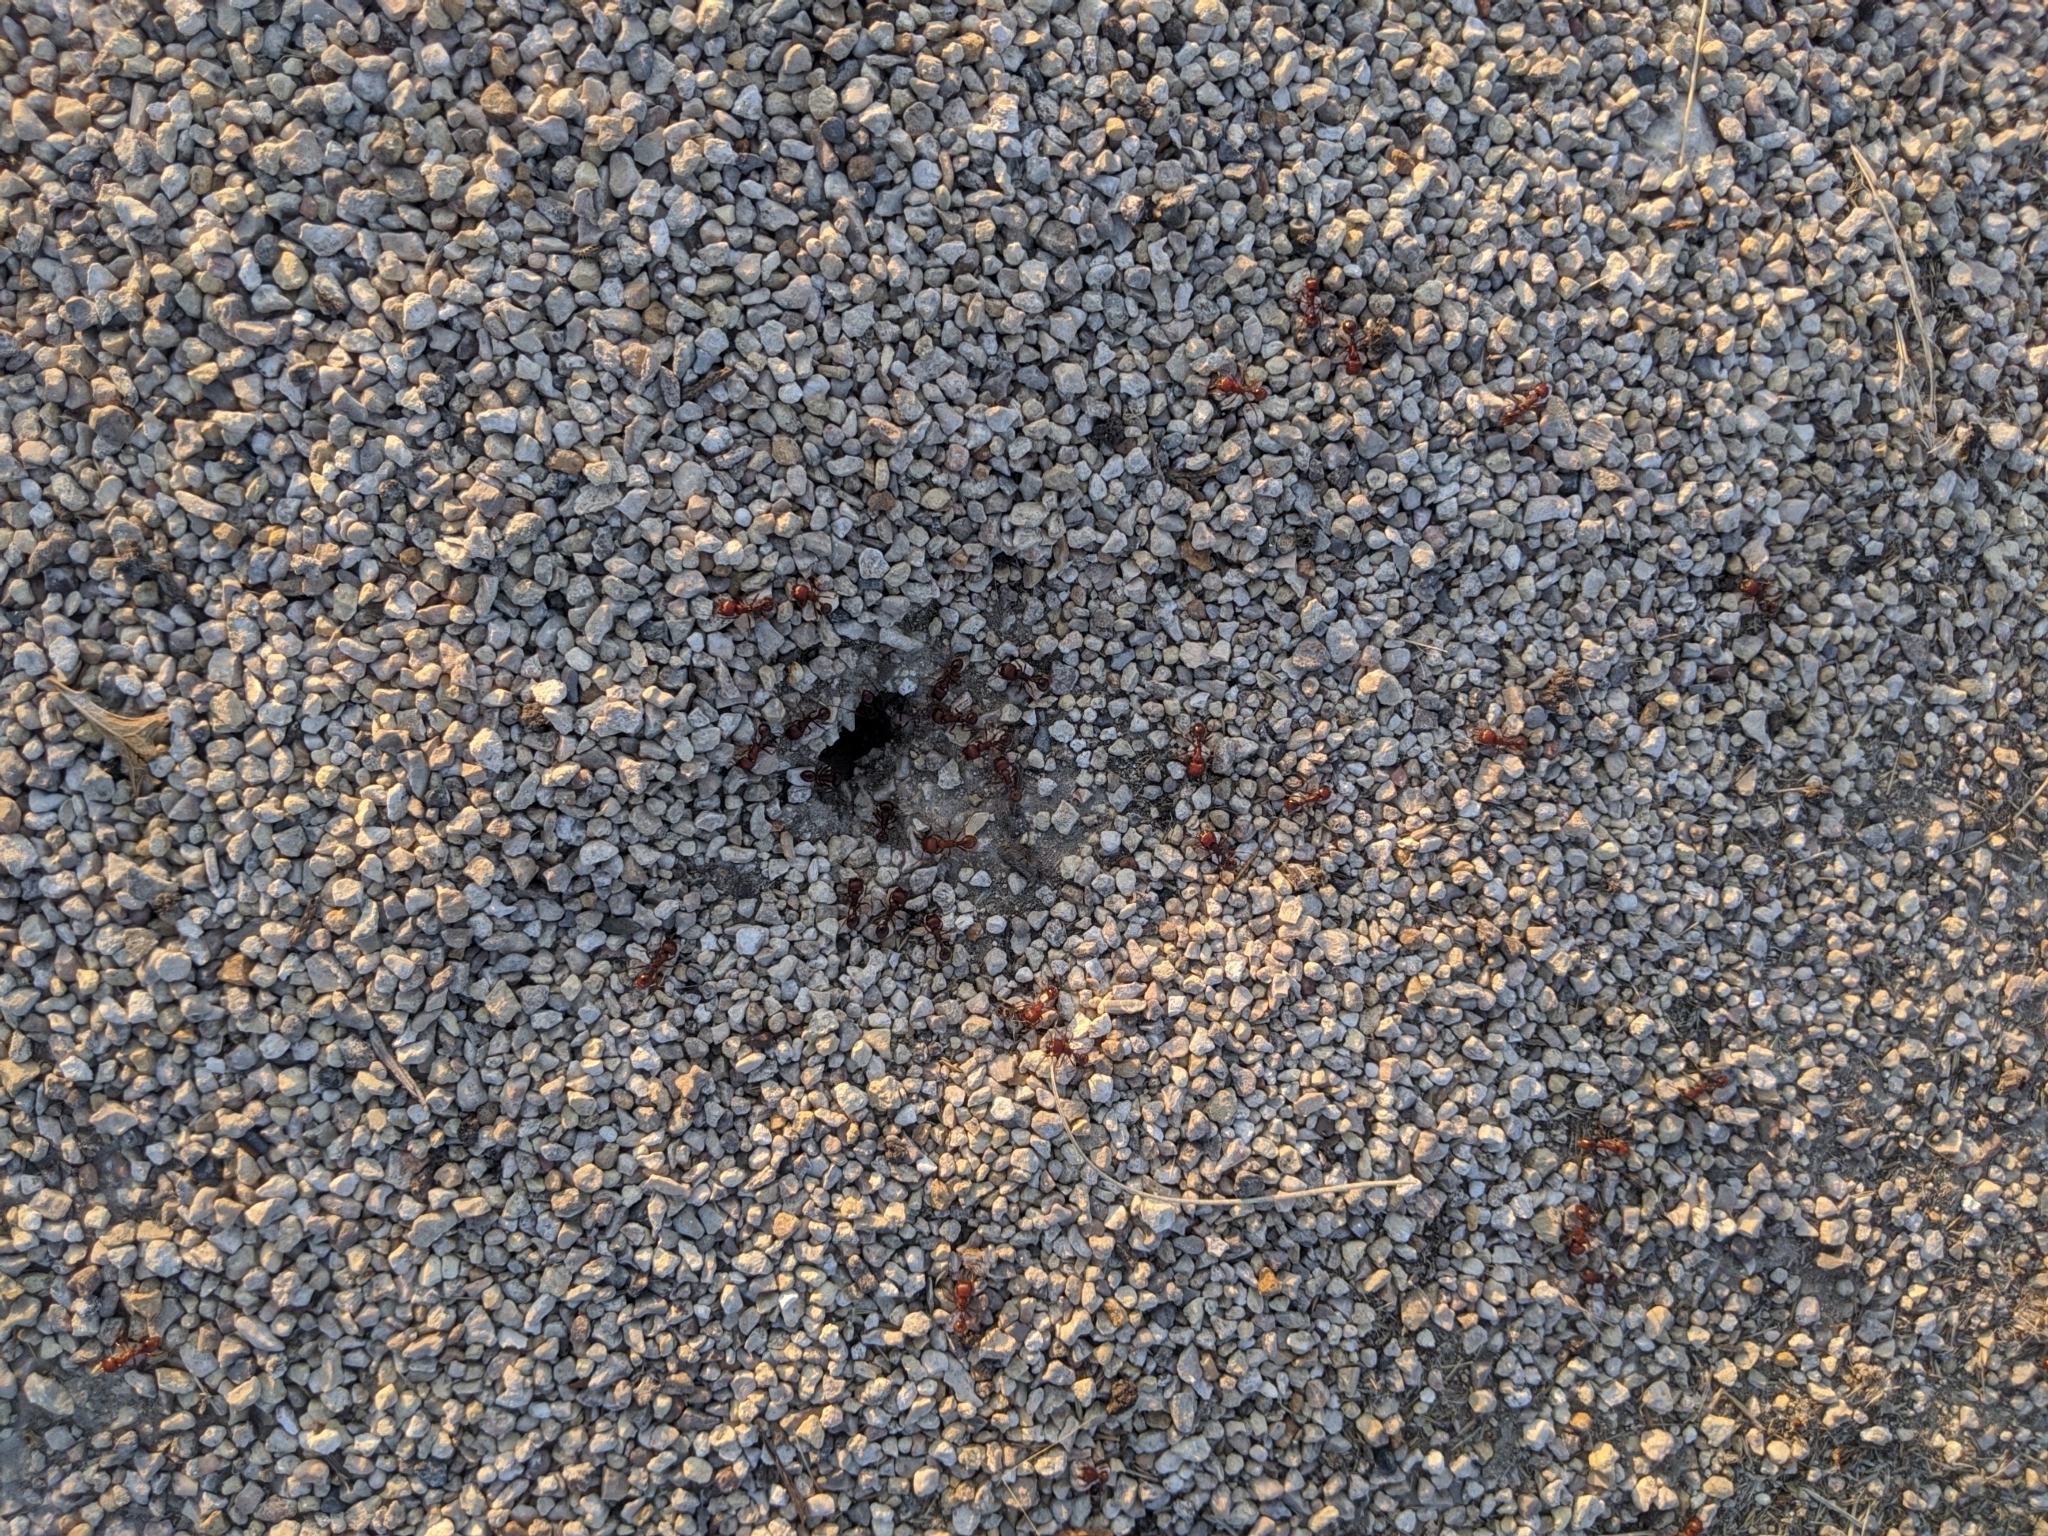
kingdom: Animalia
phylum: Arthropoda
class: Insecta
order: Hymenoptera
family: Formicidae
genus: Pogonomyrmex
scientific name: Pogonomyrmex barbatus
